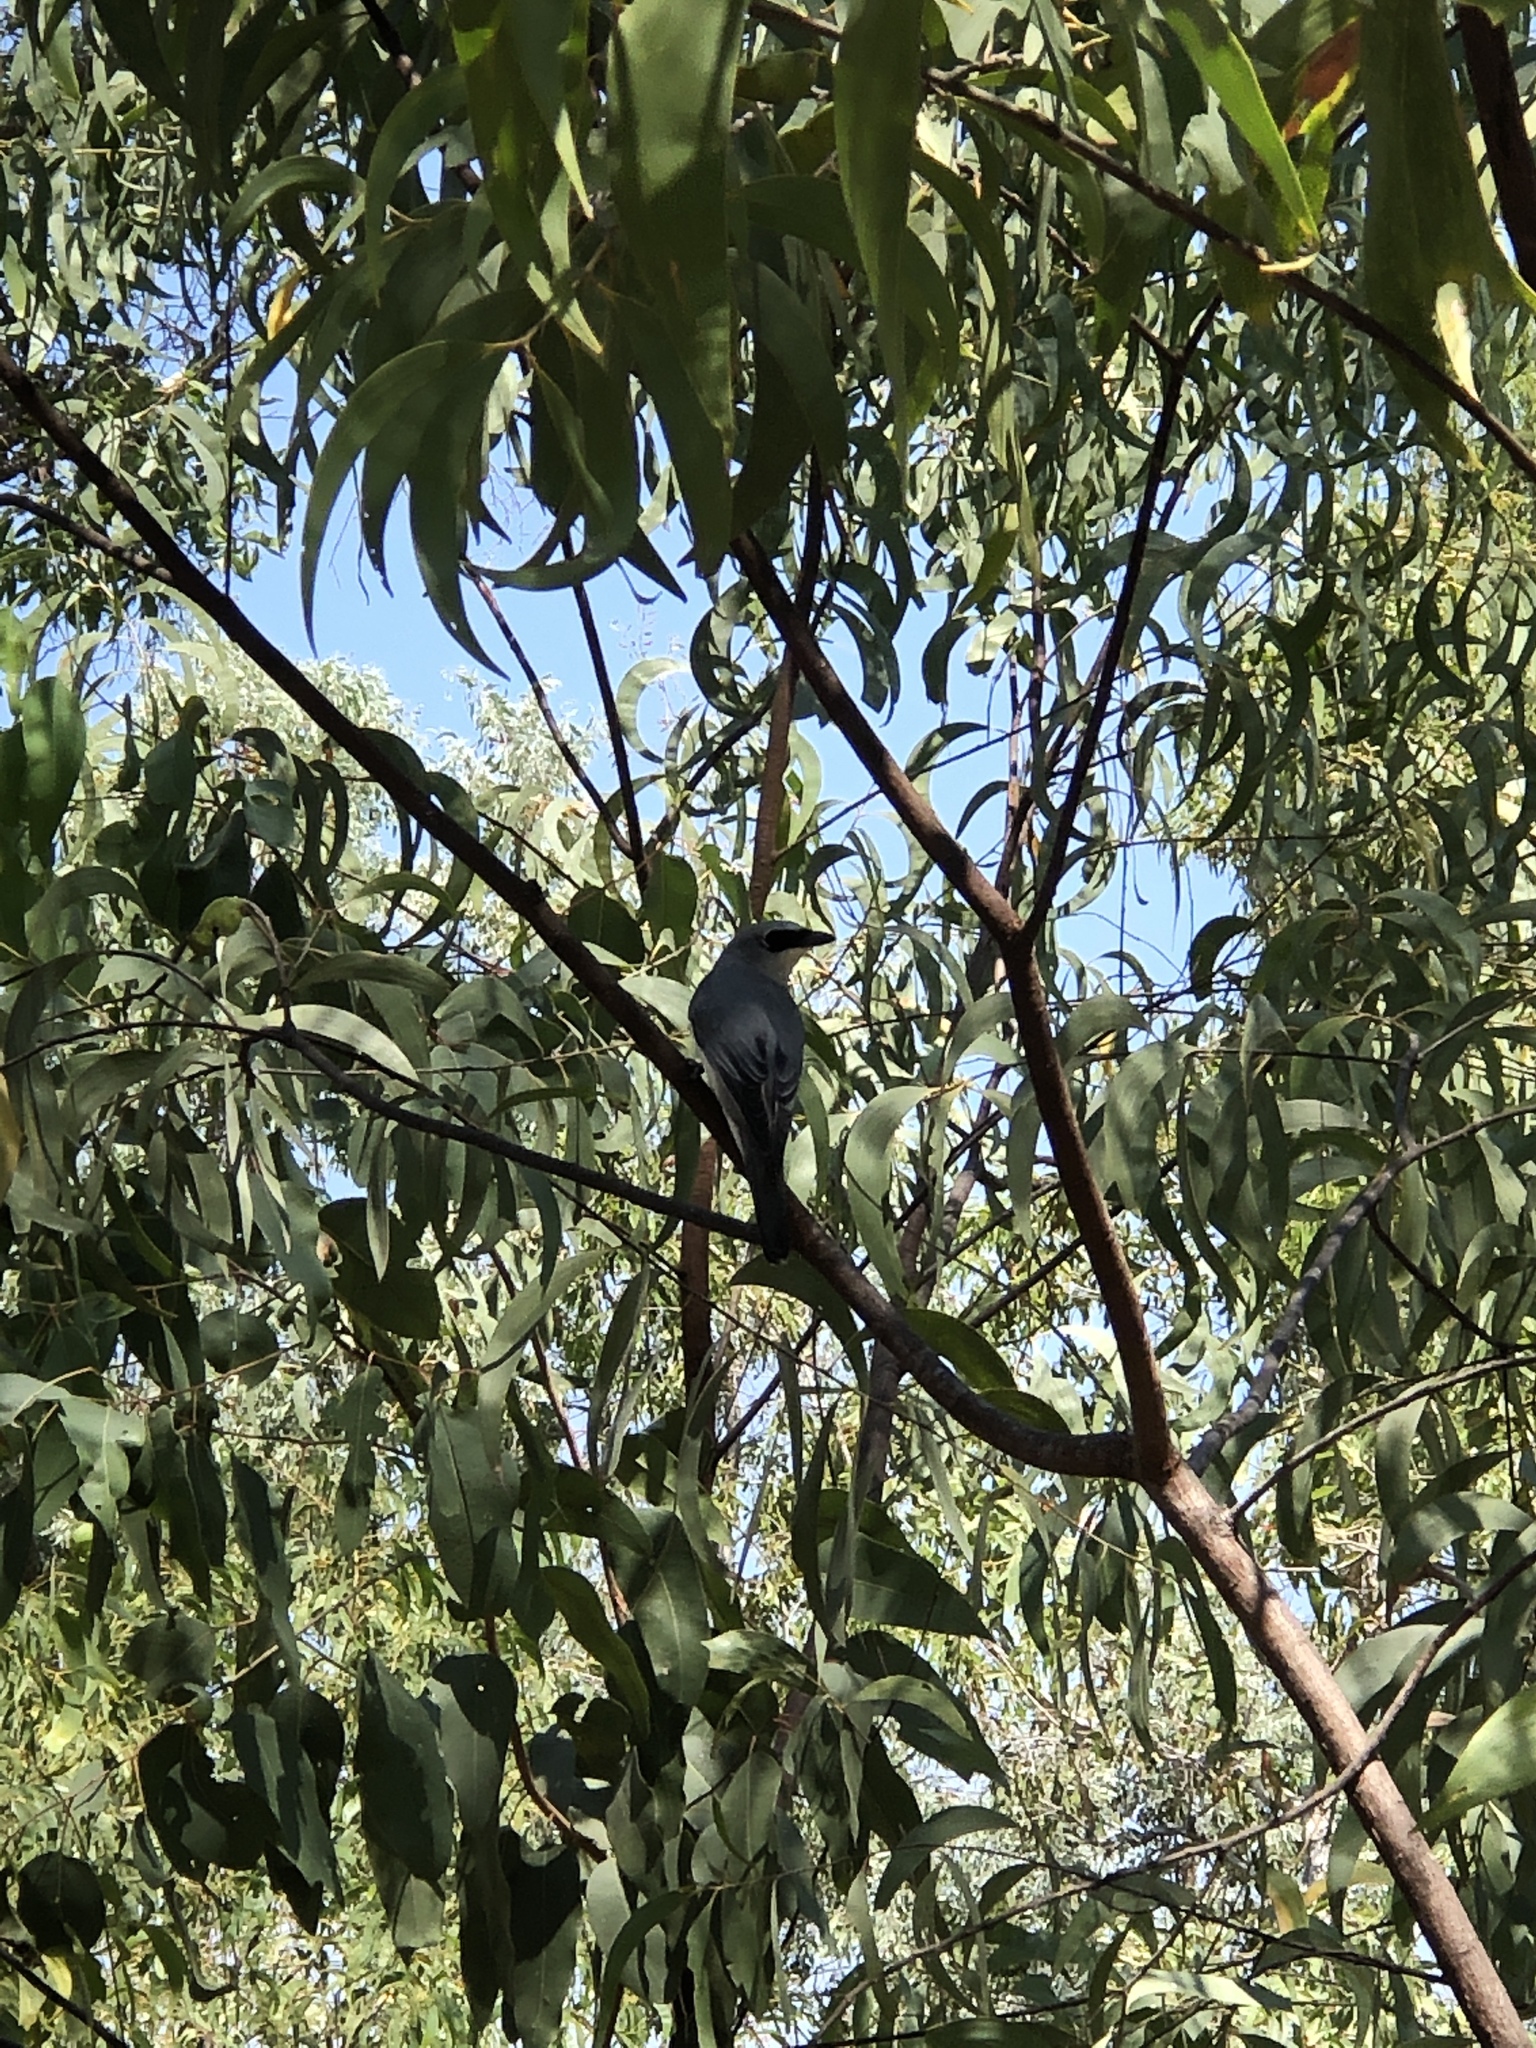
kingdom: Animalia
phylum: Chordata
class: Aves
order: Passeriformes
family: Campephagidae
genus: Coracina
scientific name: Coracina papuensis
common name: White-bellied cuckooshrike
